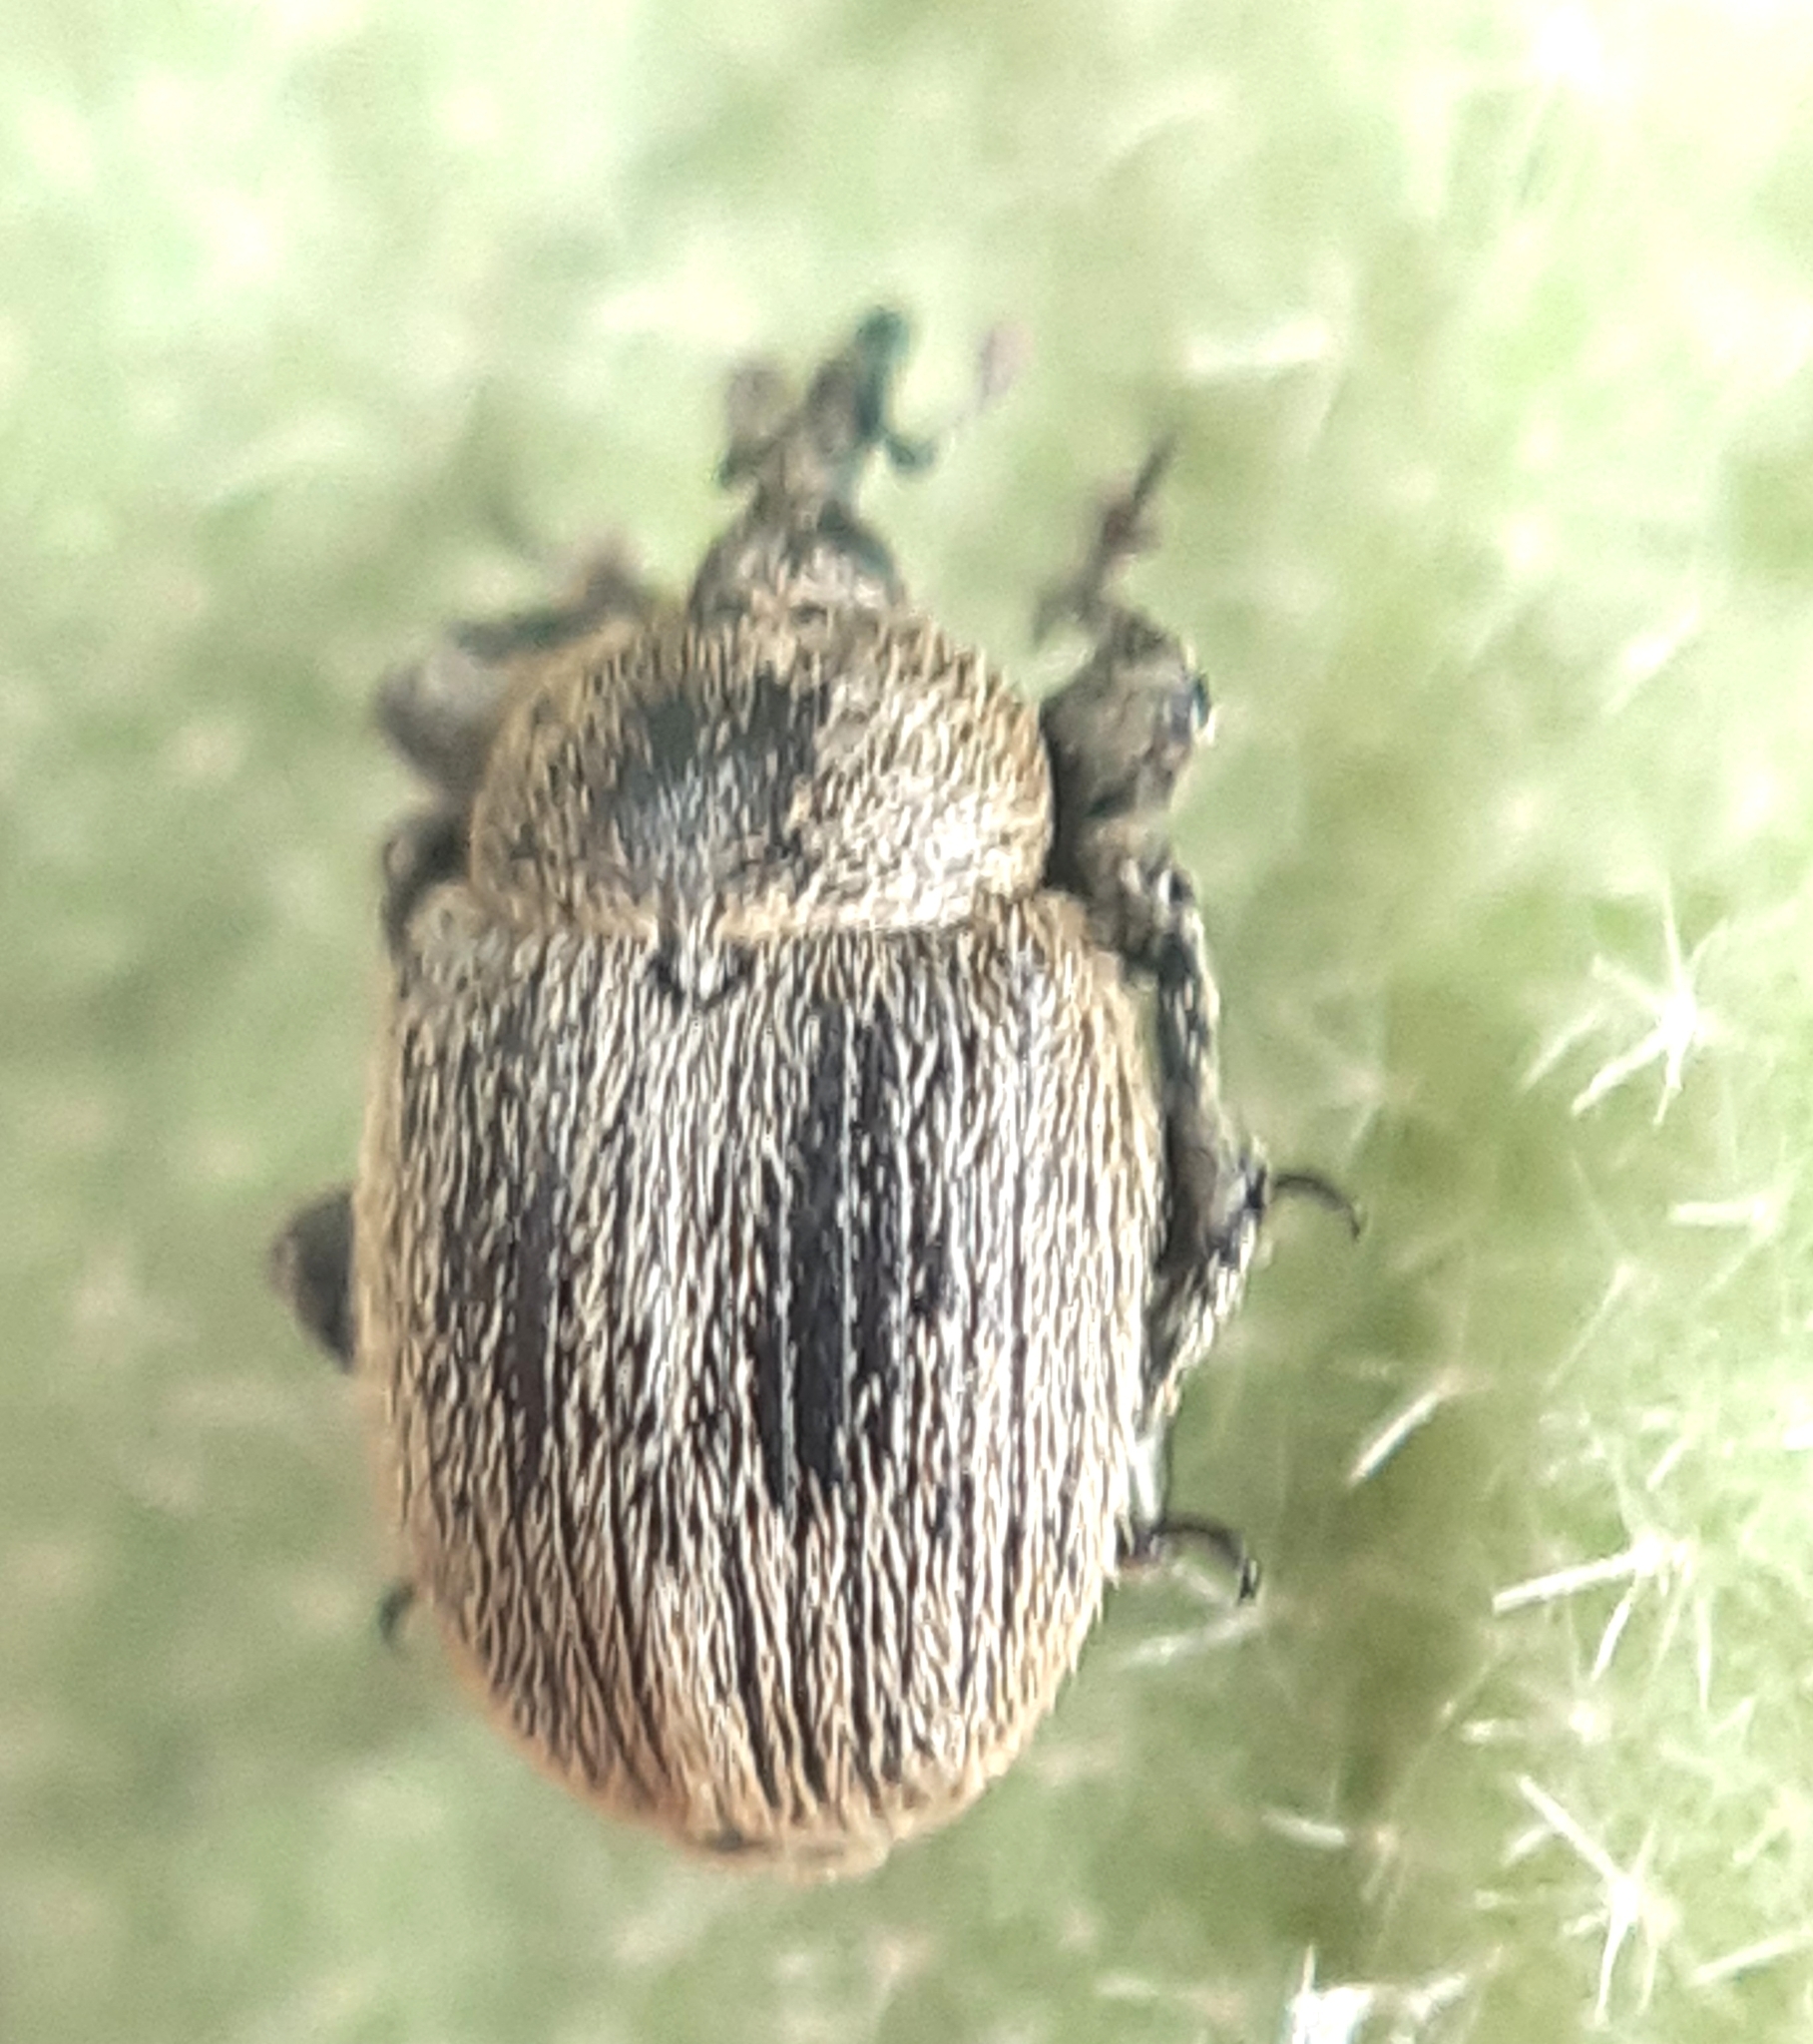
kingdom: Animalia
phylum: Arthropoda
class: Insecta
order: Coleoptera
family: Curculionidae
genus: Rhinusa
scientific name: Rhinusa tetra
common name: Weevil
